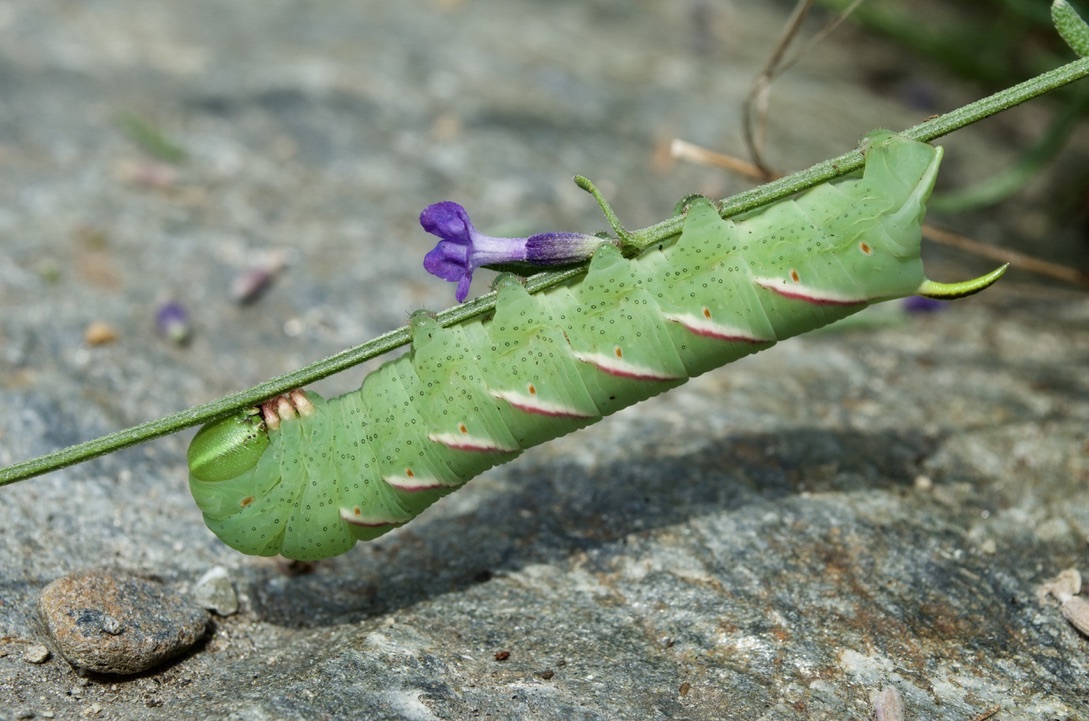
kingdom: Animalia
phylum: Arthropoda
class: Insecta
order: Lepidoptera
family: Sphingidae
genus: Sphinx
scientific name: Sphinx poecila
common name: Northern apple sphinx
